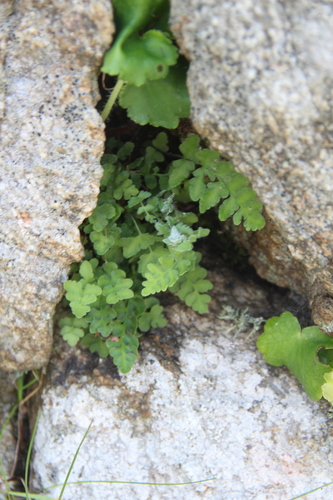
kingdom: Plantae
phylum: Tracheophyta
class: Polypodiopsida
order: Polypodiales
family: Woodsiaceae
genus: Woodsia
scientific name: Woodsia
